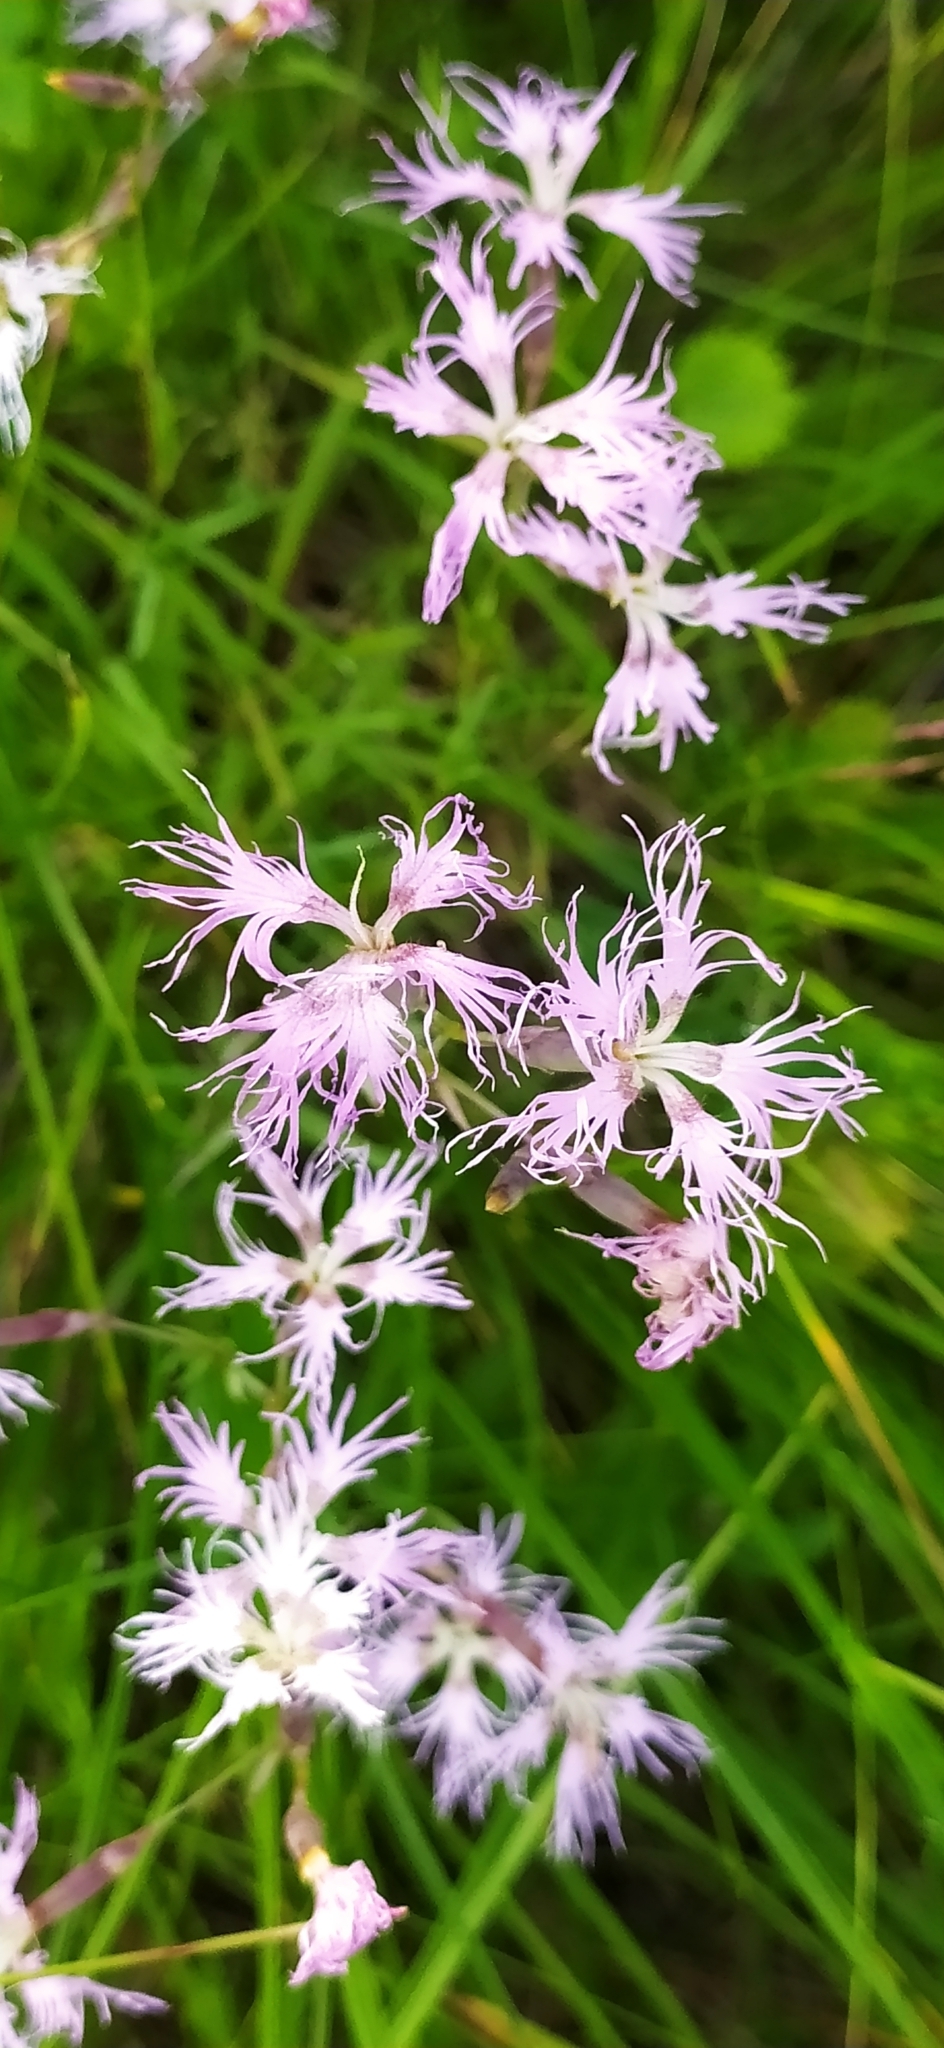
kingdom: Plantae
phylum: Tracheophyta
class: Magnoliopsida
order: Caryophyllales
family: Caryophyllaceae
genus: Dianthus
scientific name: Dianthus superbus
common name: Fringed pink
